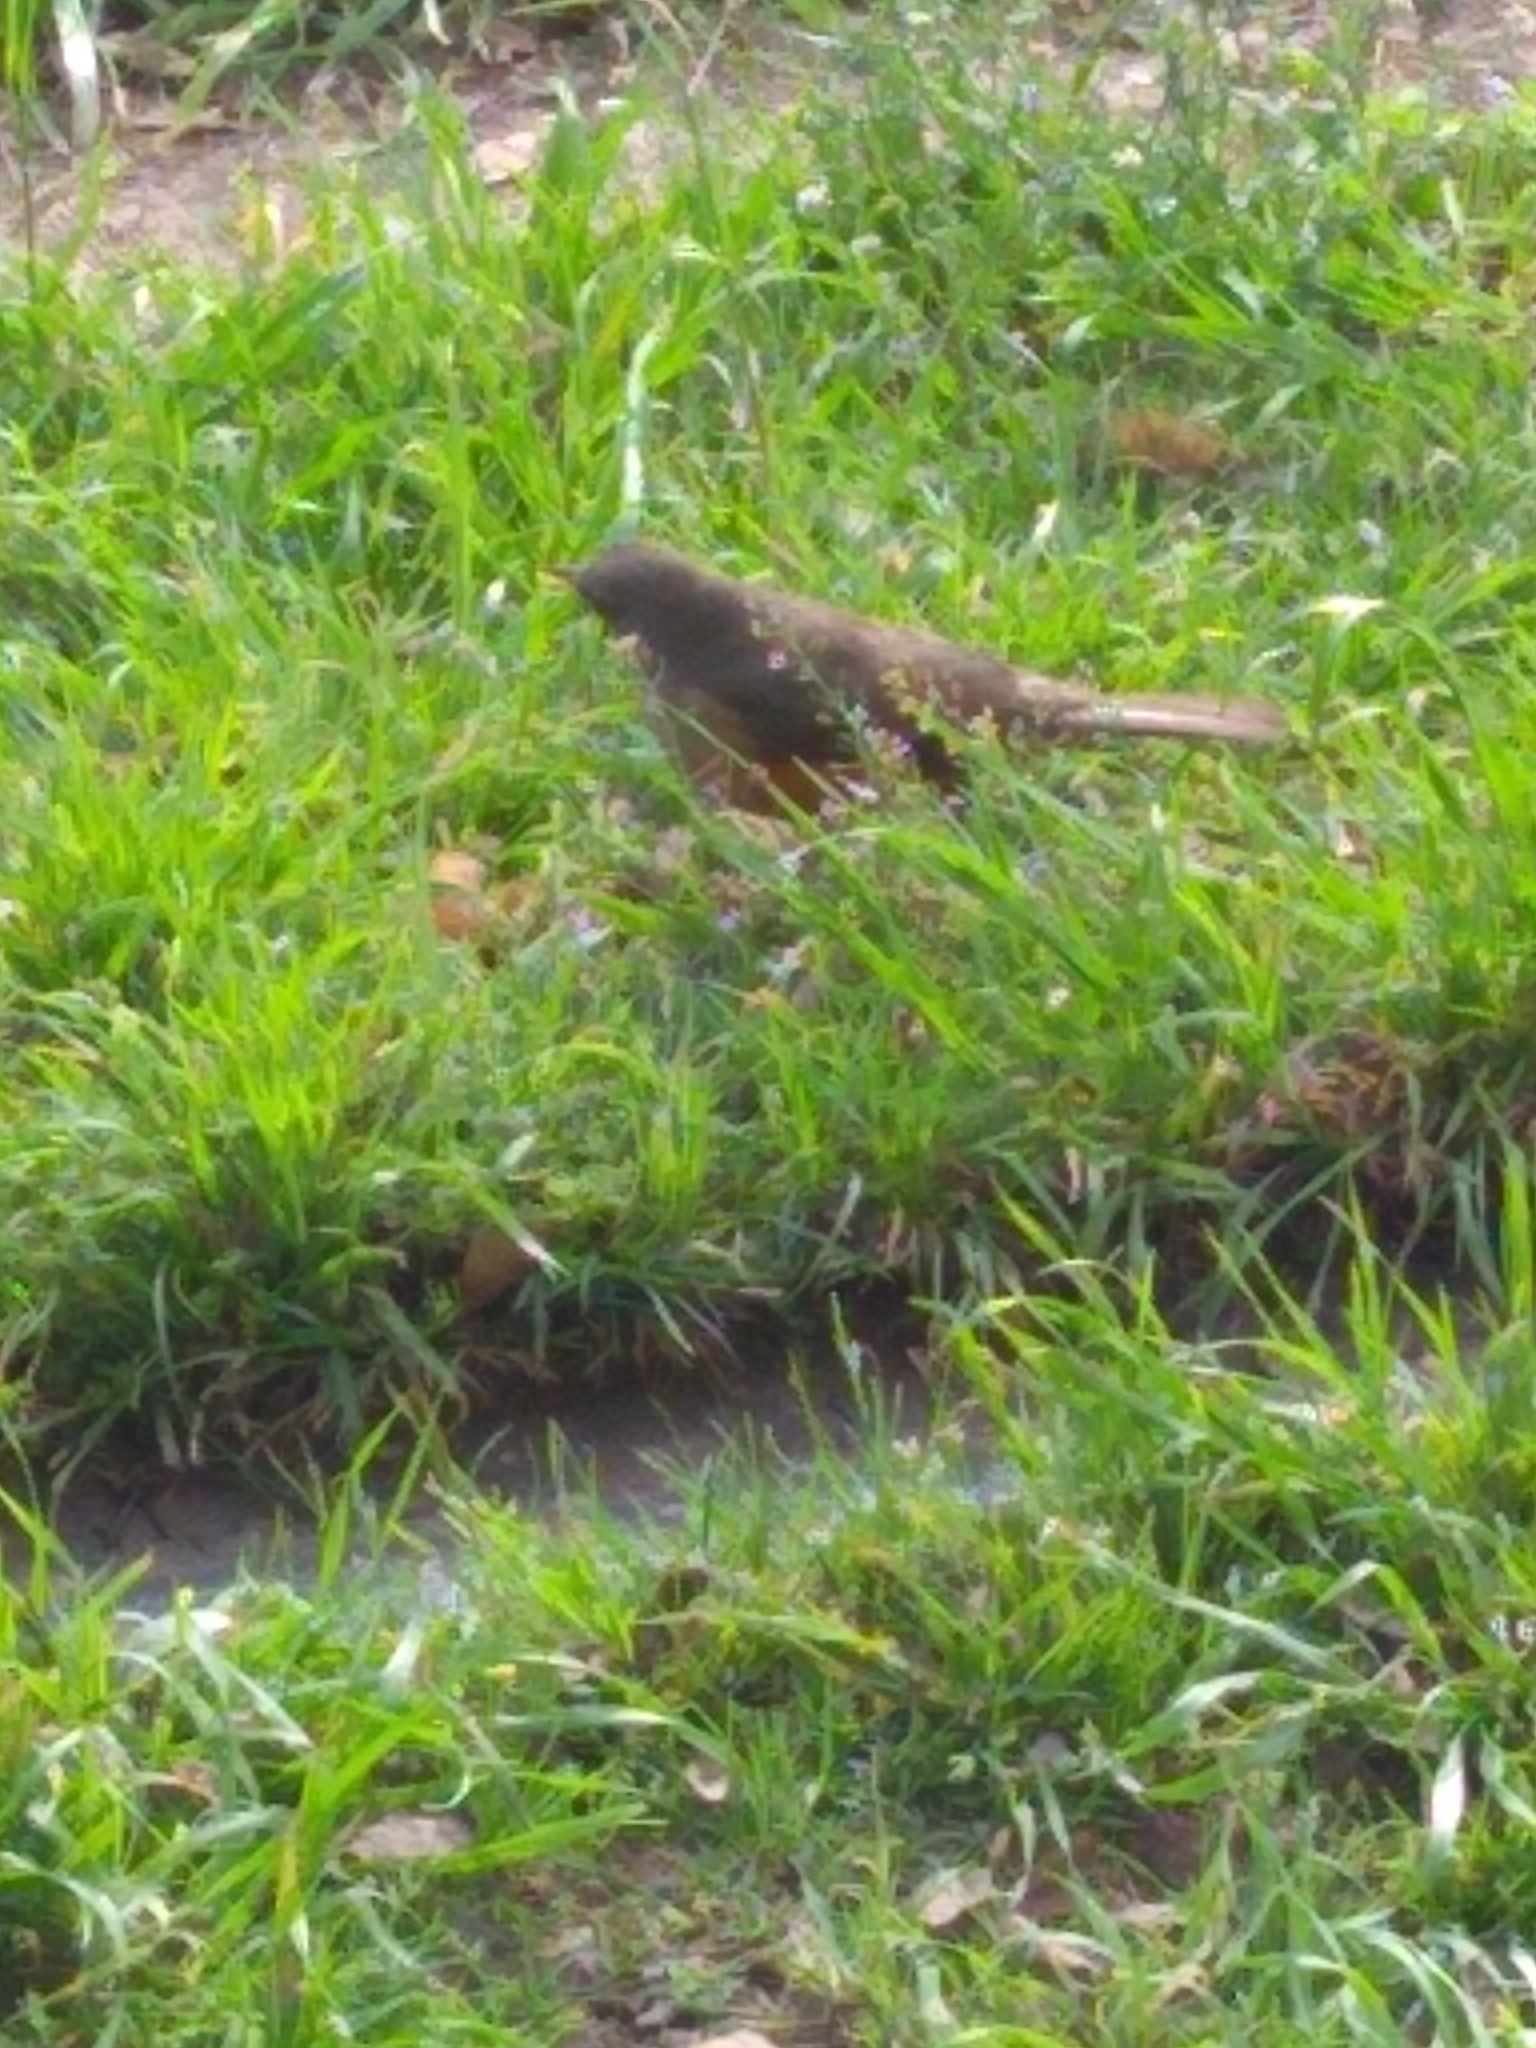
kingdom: Animalia
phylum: Chordata
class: Aves
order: Passeriformes
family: Turdidae
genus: Turdus
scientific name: Turdus rufiventris
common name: Rufous-bellied thrush
